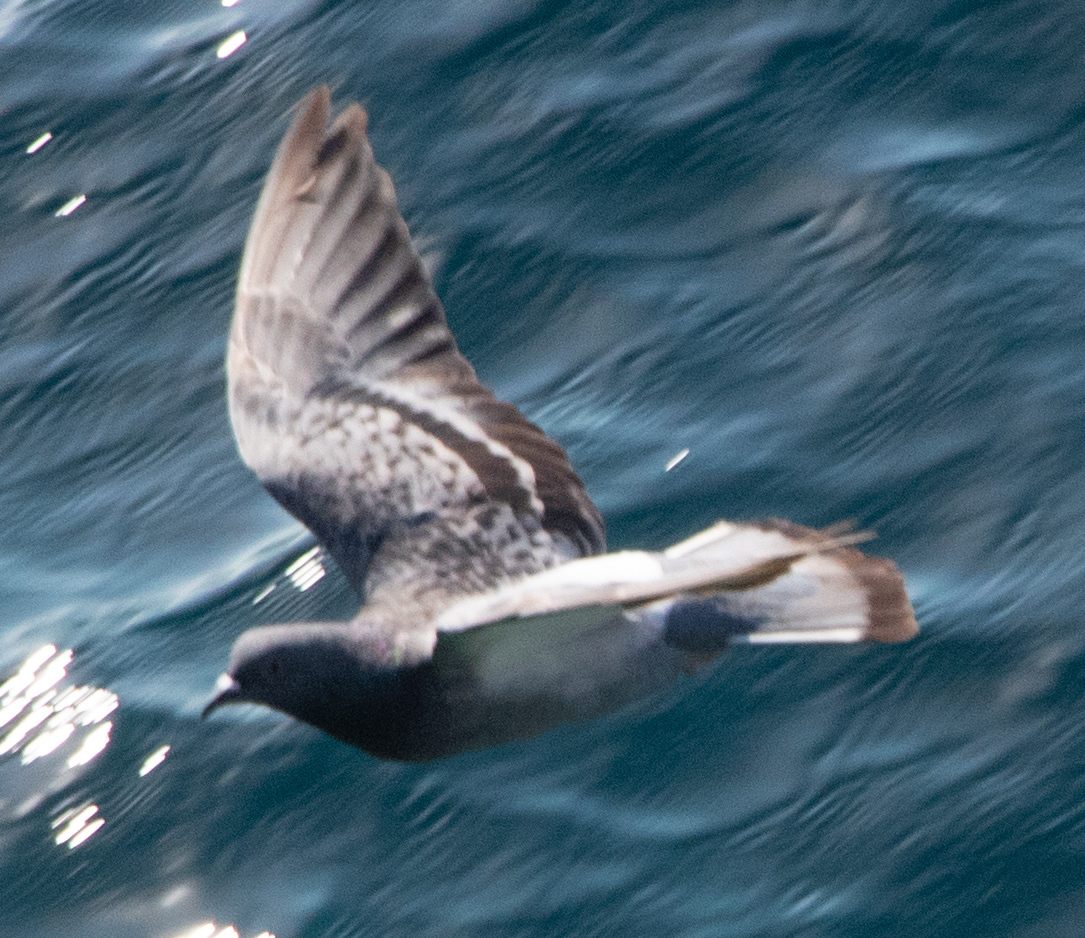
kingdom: Animalia
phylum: Chordata
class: Aves
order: Columbiformes
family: Columbidae
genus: Columba
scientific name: Columba livia
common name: Rock pigeon
